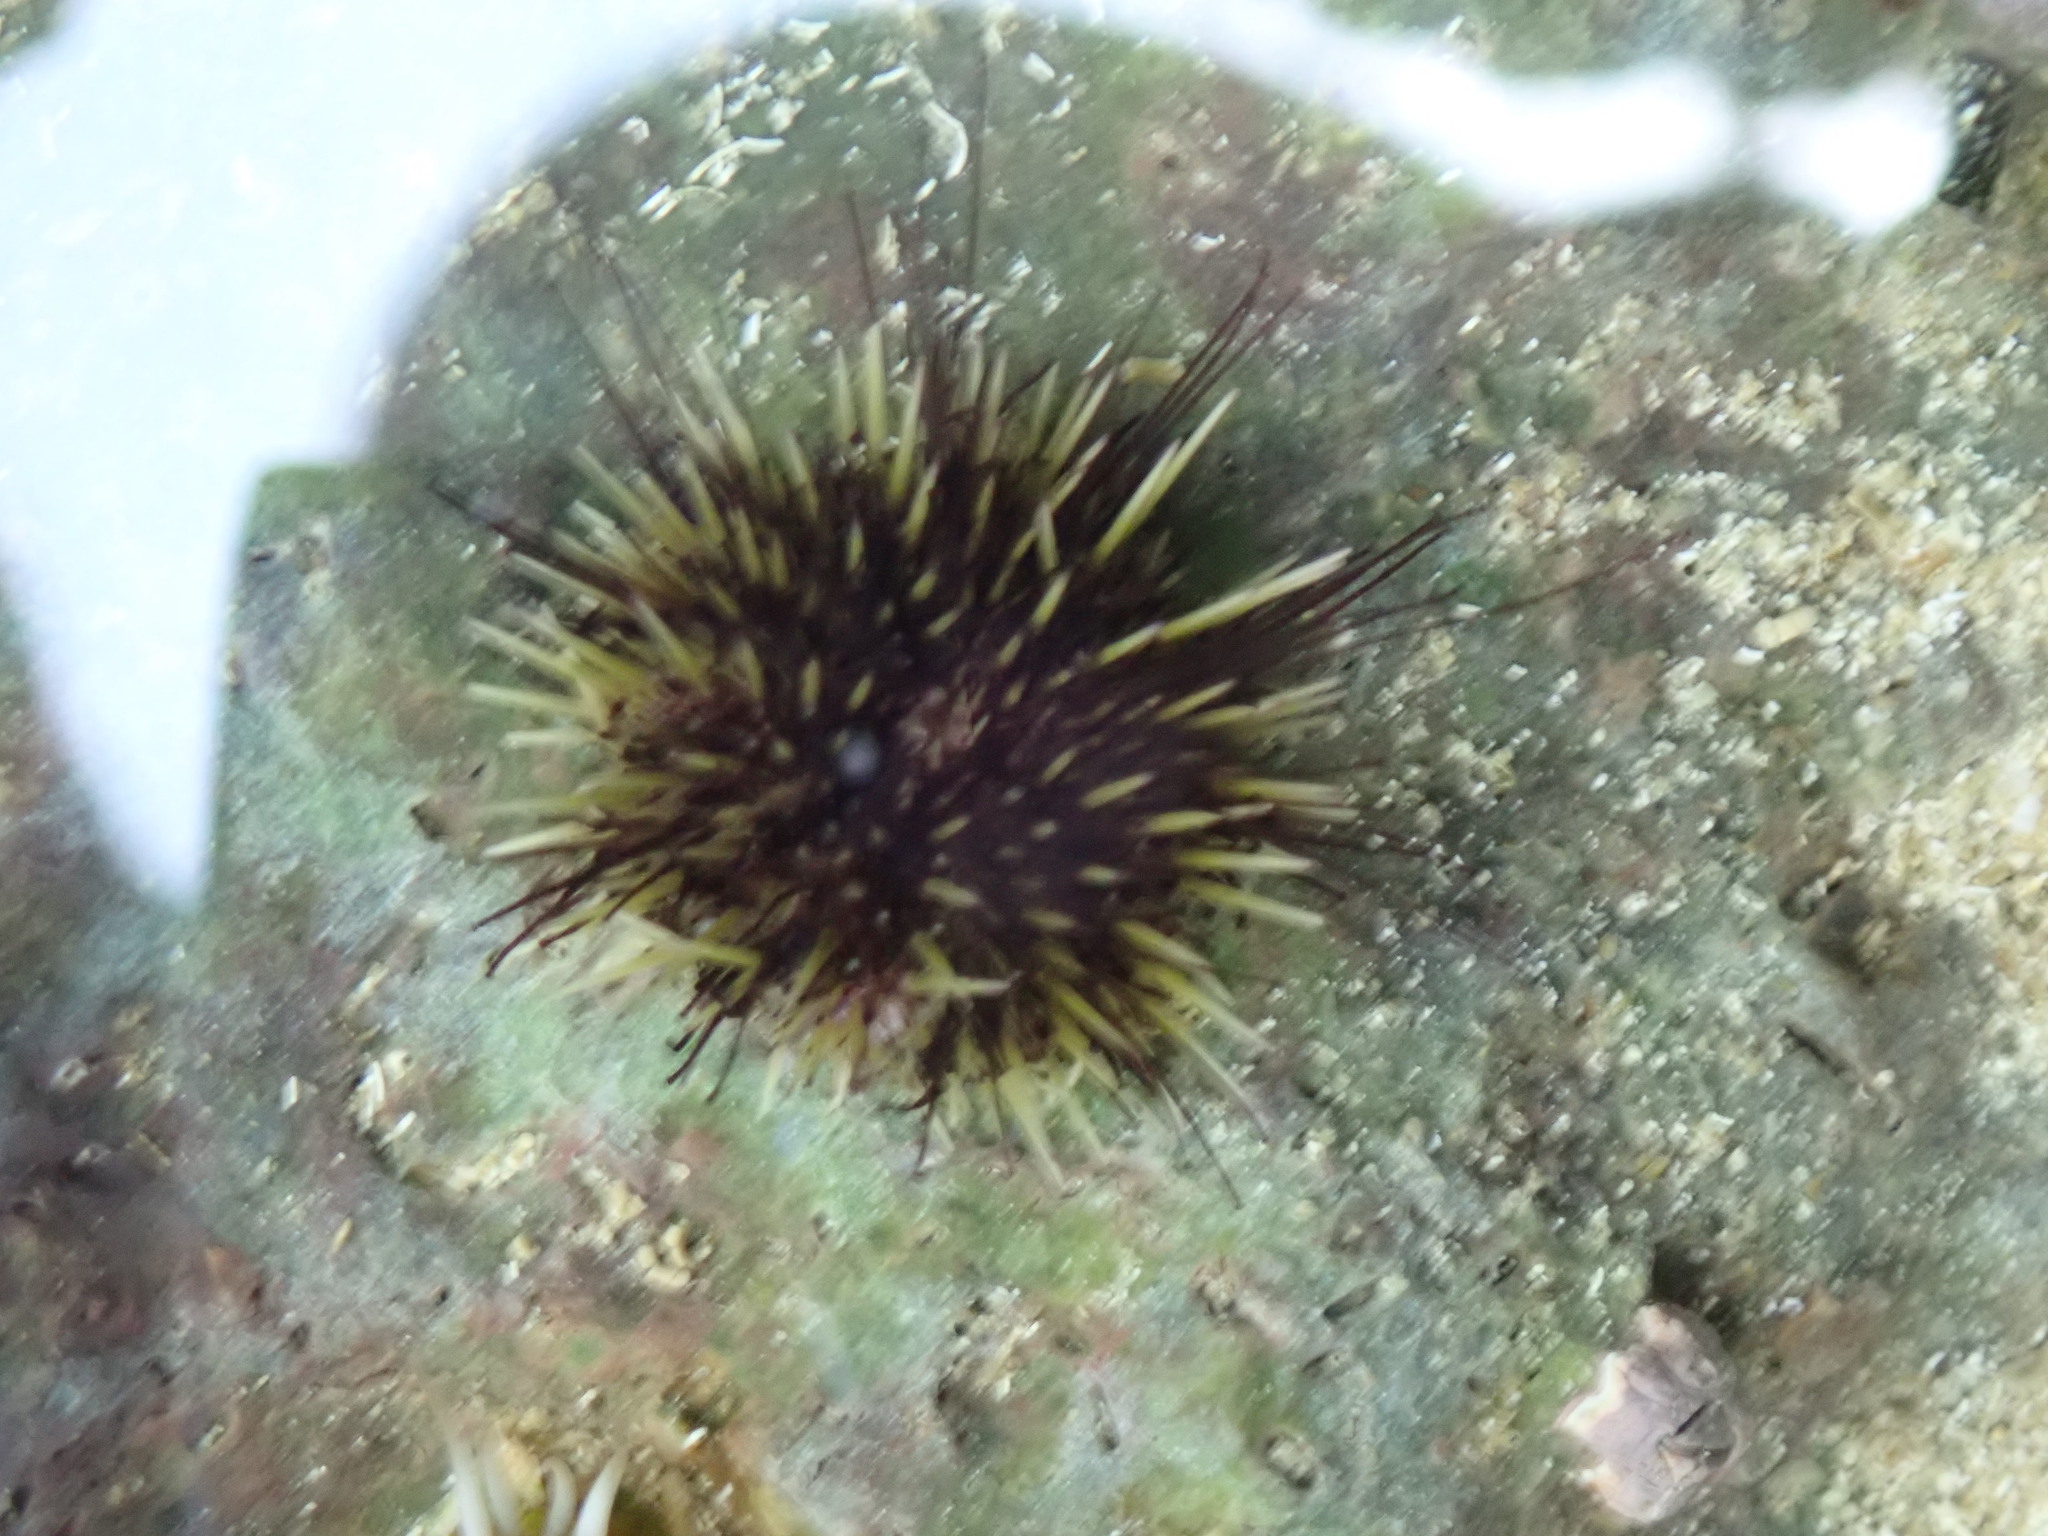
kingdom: Animalia
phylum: Echinodermata
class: Echinoidea
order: Camarodonta
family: Strongylocentrotidae
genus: Strongylocentrotus
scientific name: Strongylocentrotus droebachiensis
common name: Northern sea urchin
